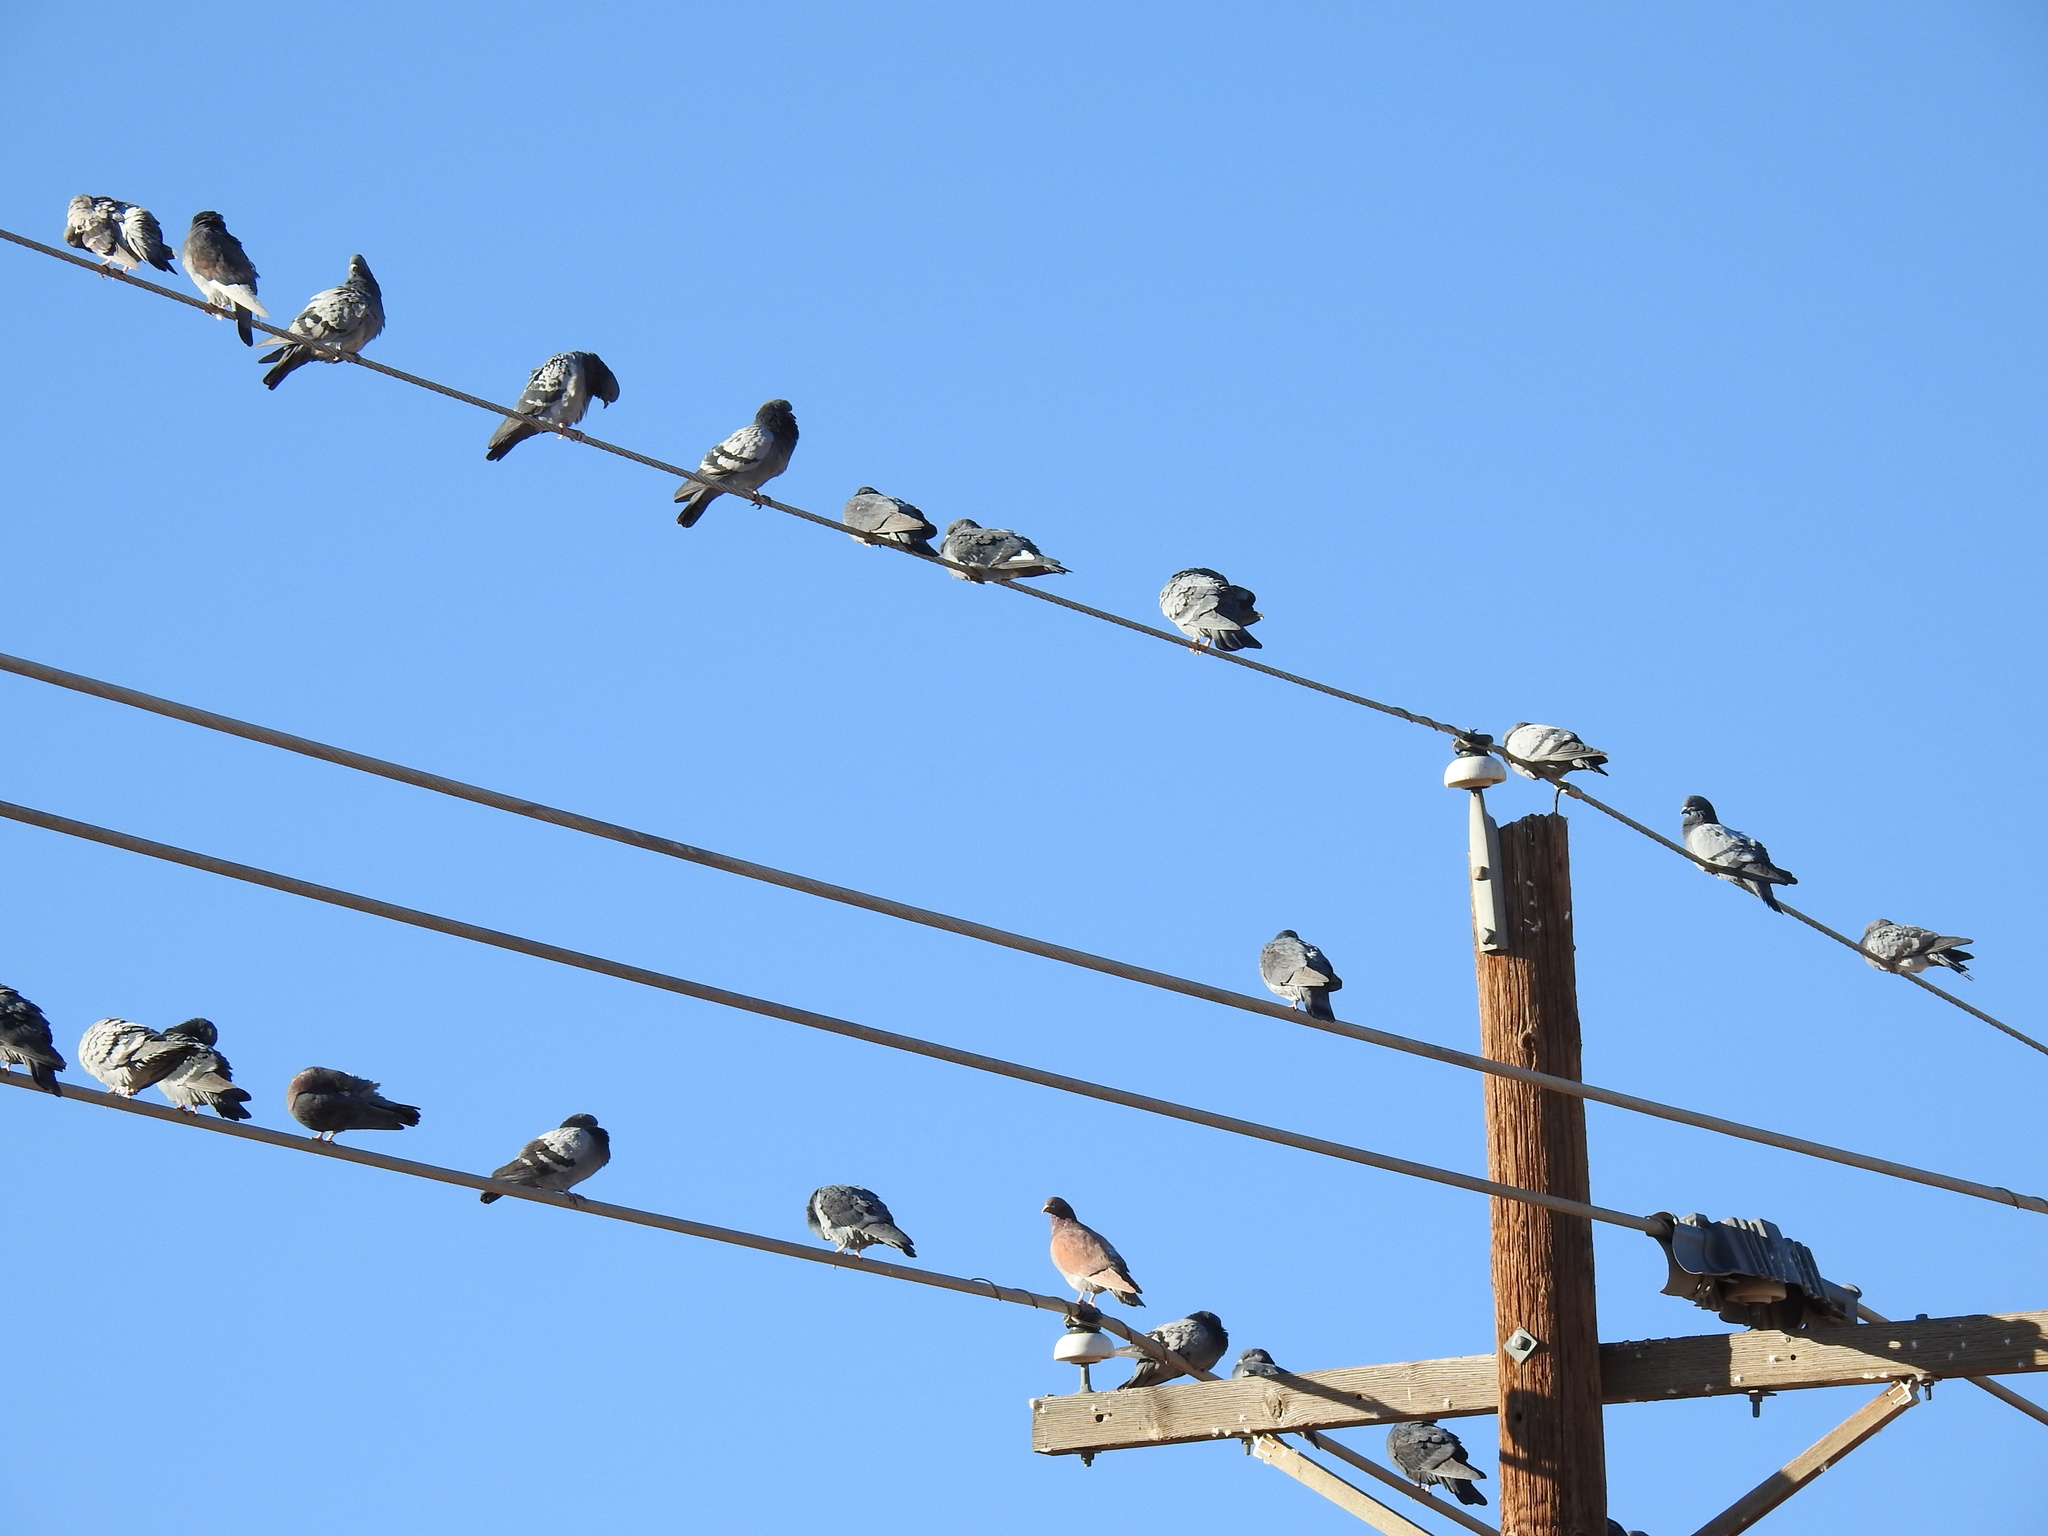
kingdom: Animalia
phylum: Chordata
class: Aves
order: Columbiformes
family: Columbidae
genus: Columba
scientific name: Columba livia
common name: Rock pigeon
